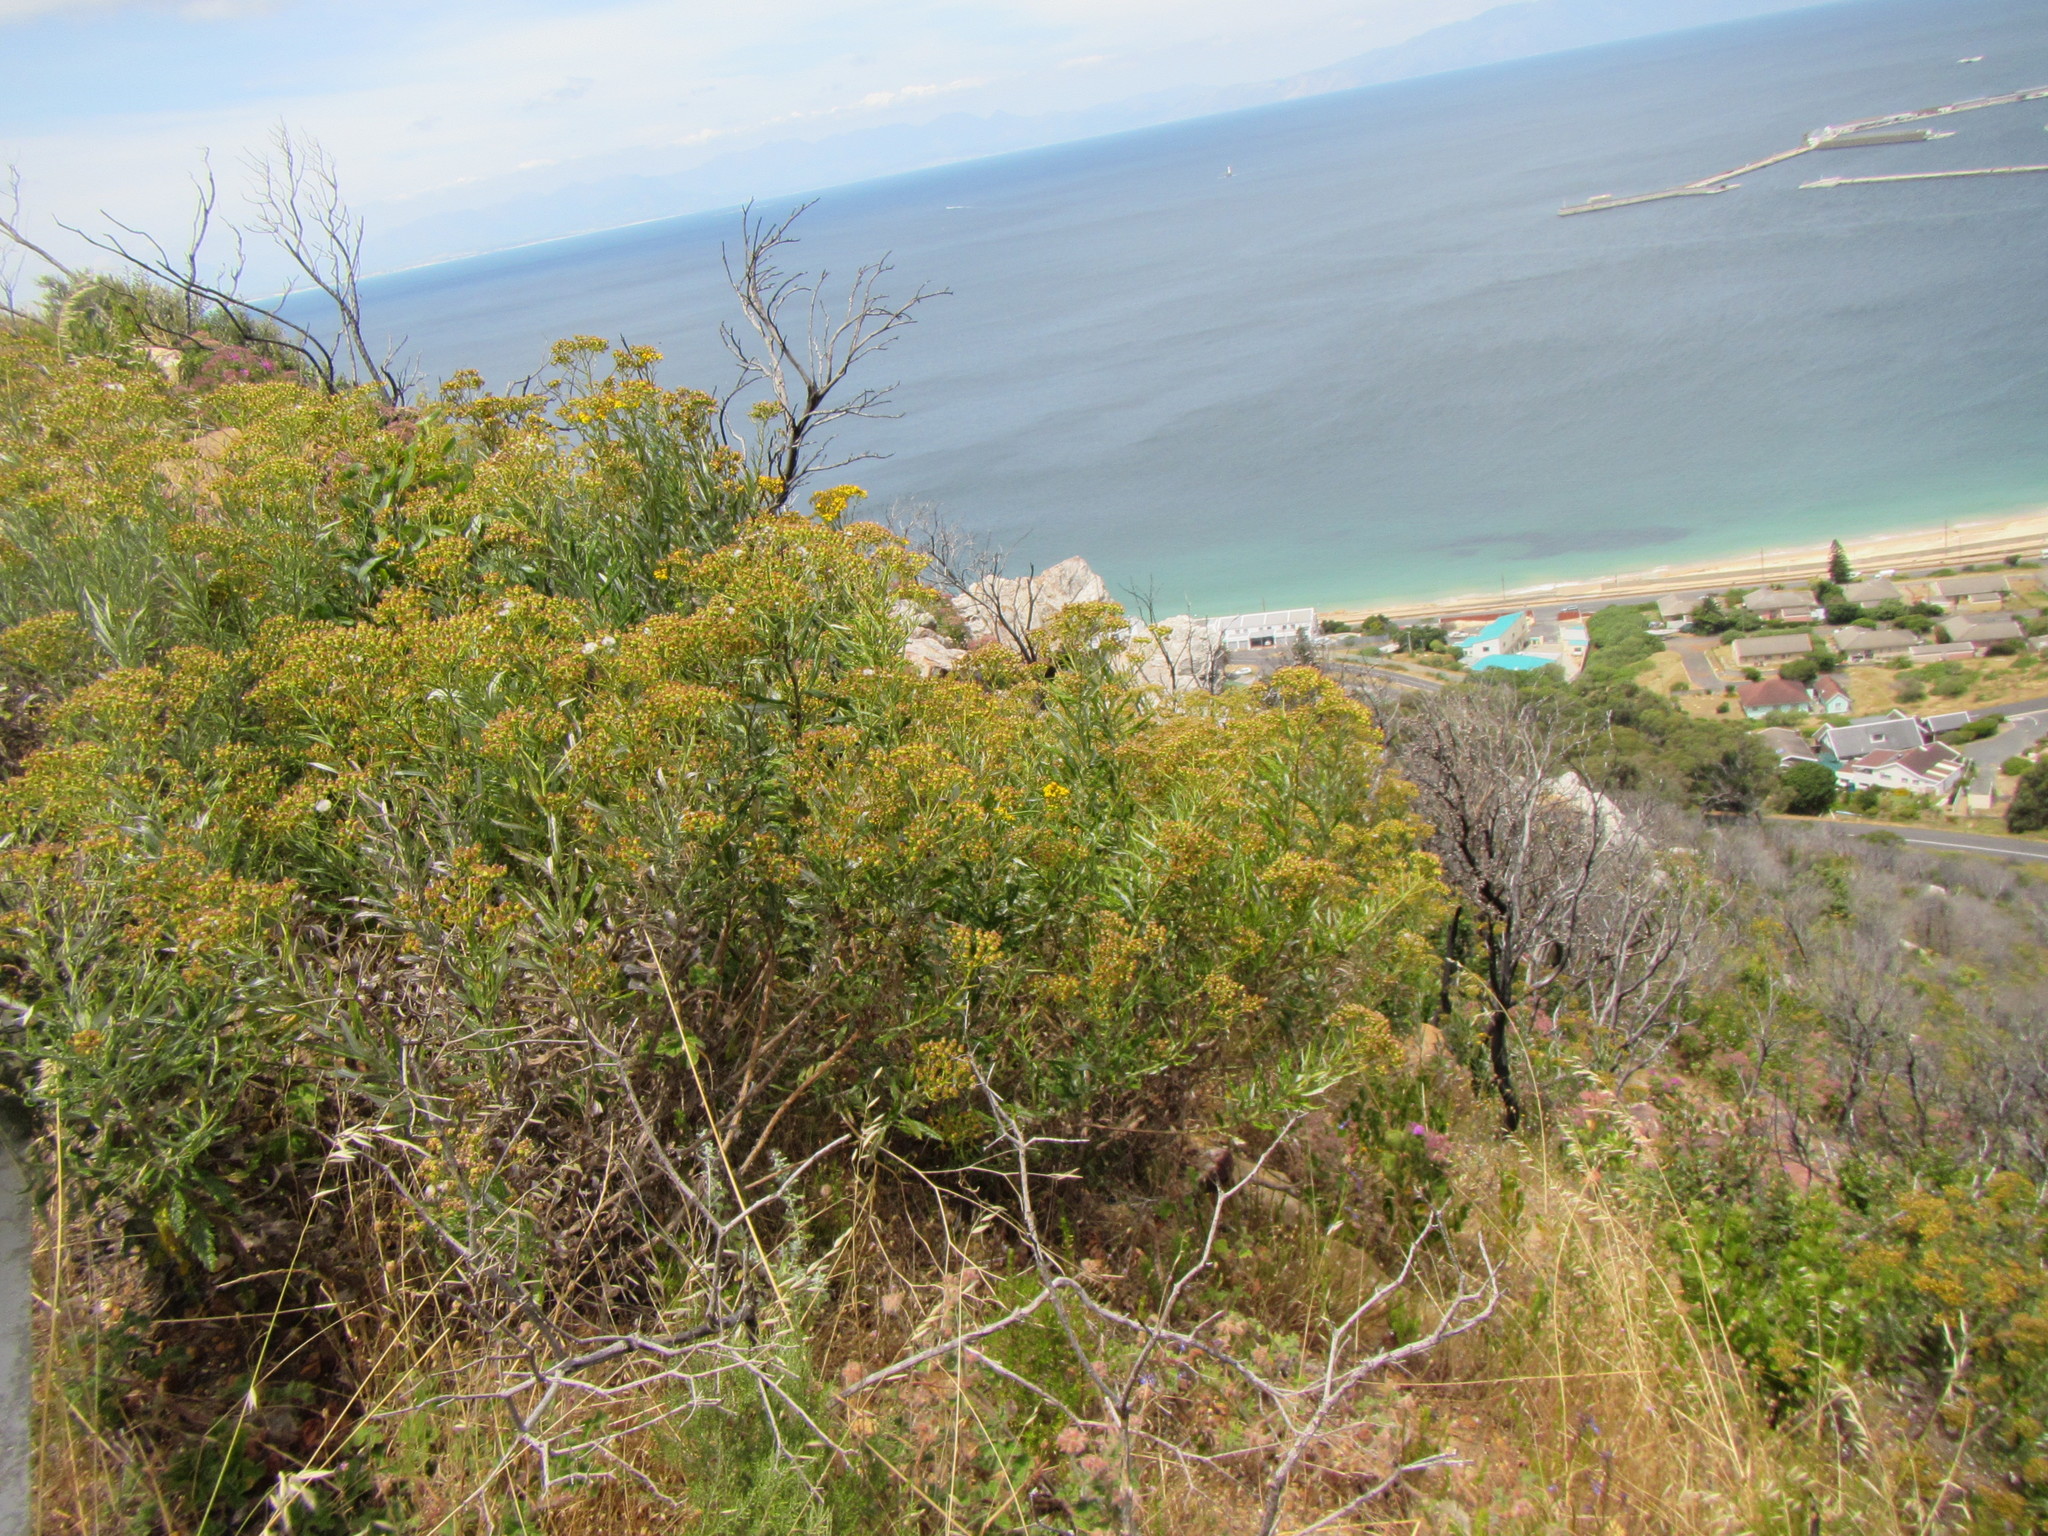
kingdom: Plantae
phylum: Tracheophyta
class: Magnoliopsida
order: Asterales
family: Asteraceae
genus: Senecio
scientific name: Senecio pterophorus
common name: Shoddy ragwort
